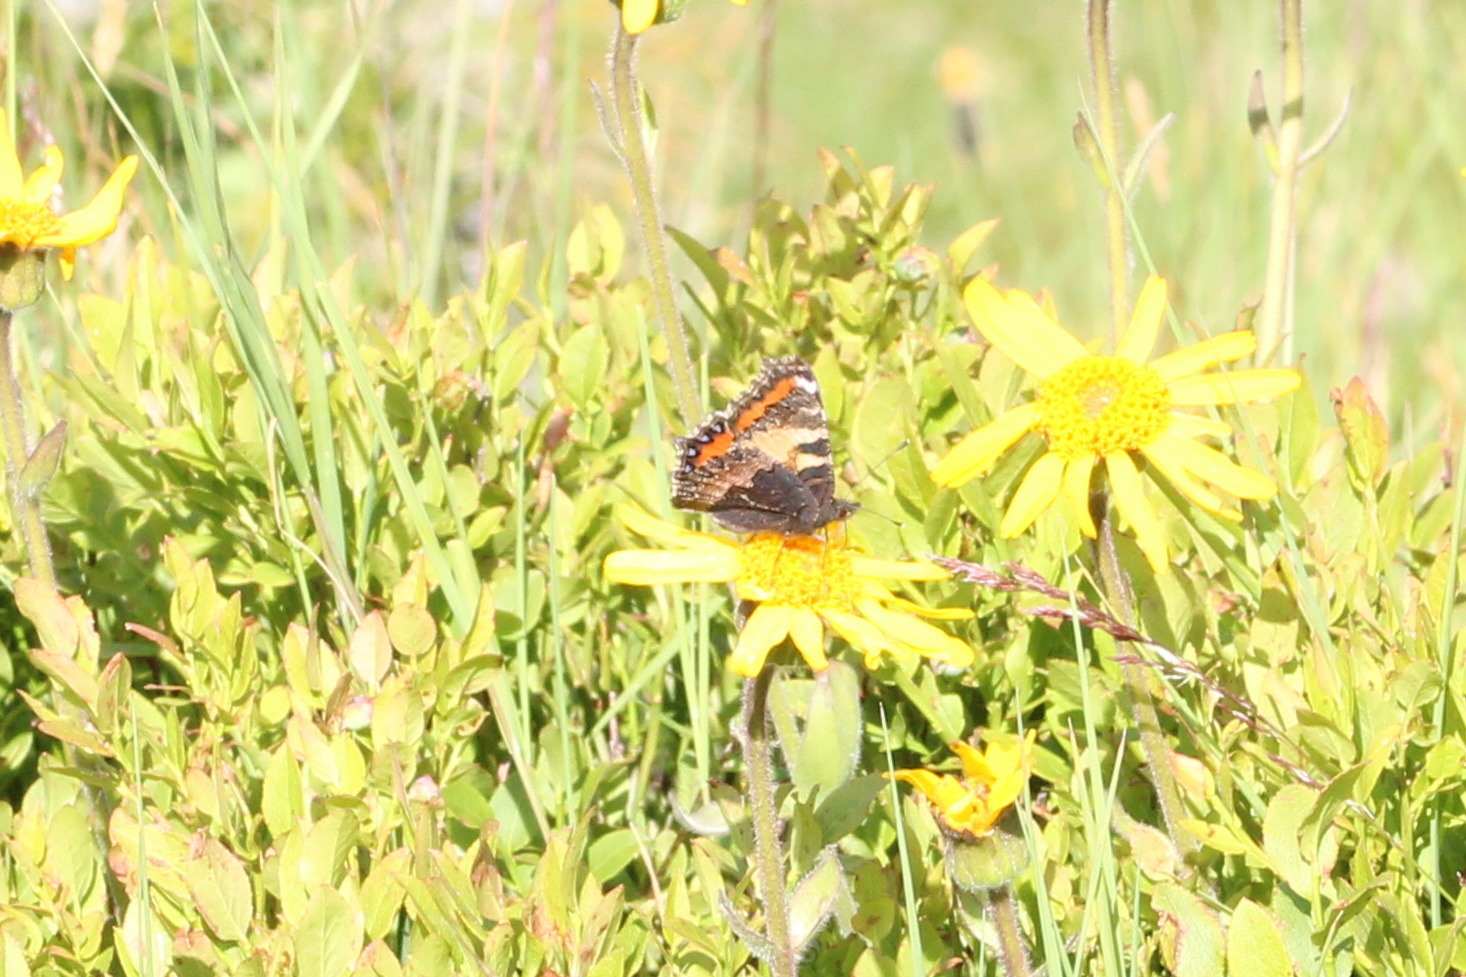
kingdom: Animalia
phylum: Arthropoda
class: Insecta
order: Lepidoptera
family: Nymphalidae
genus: Aglais
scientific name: Aglais urticae
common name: Small tortoiseshell
